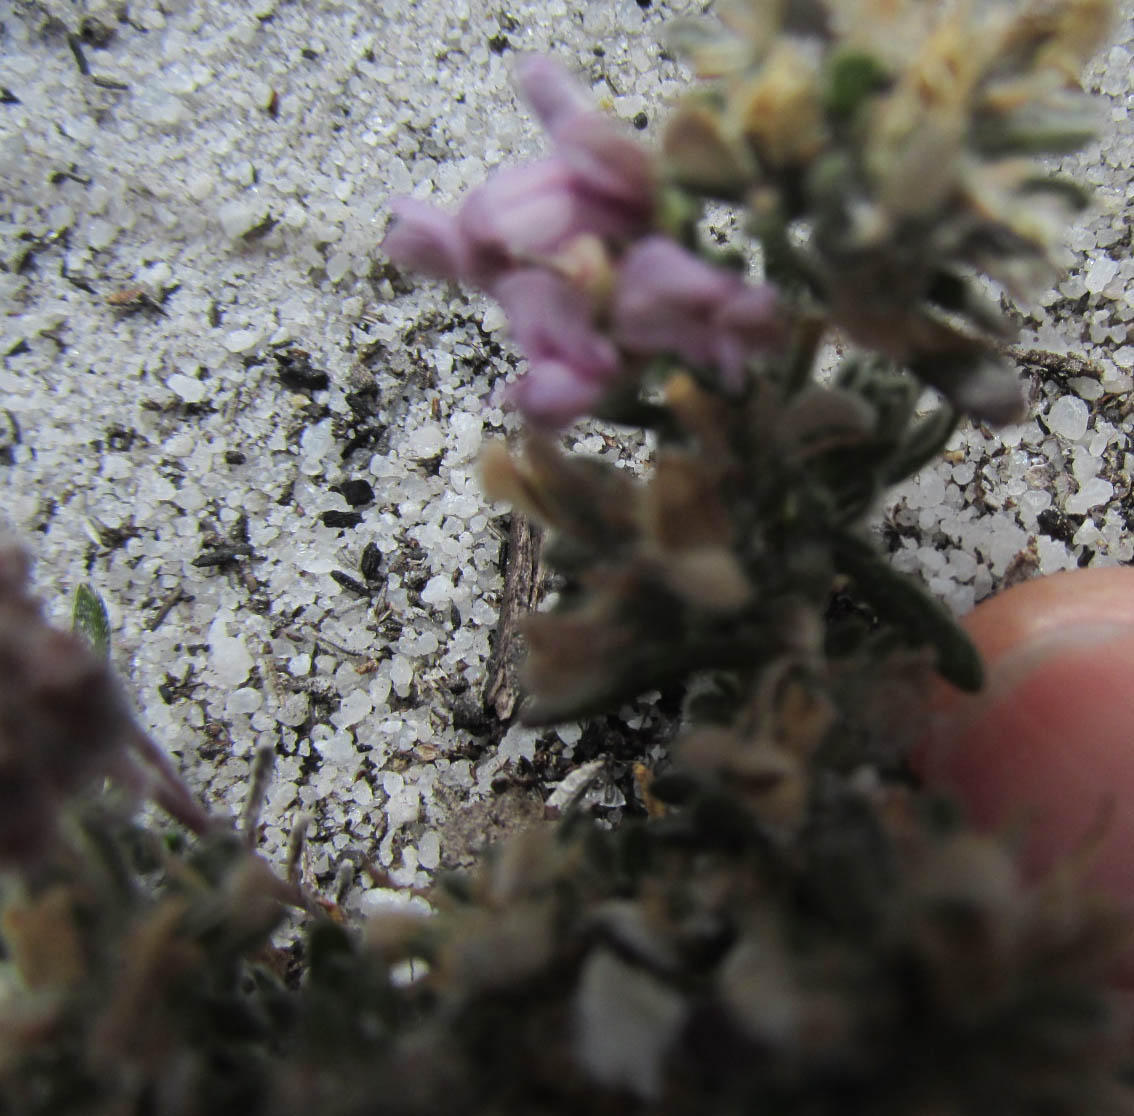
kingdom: Plantae
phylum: Tracheophyta
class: Magnoliopsida
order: Fabales
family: Fabaceae
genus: Aspalathus
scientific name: Aspalathus argyrella
